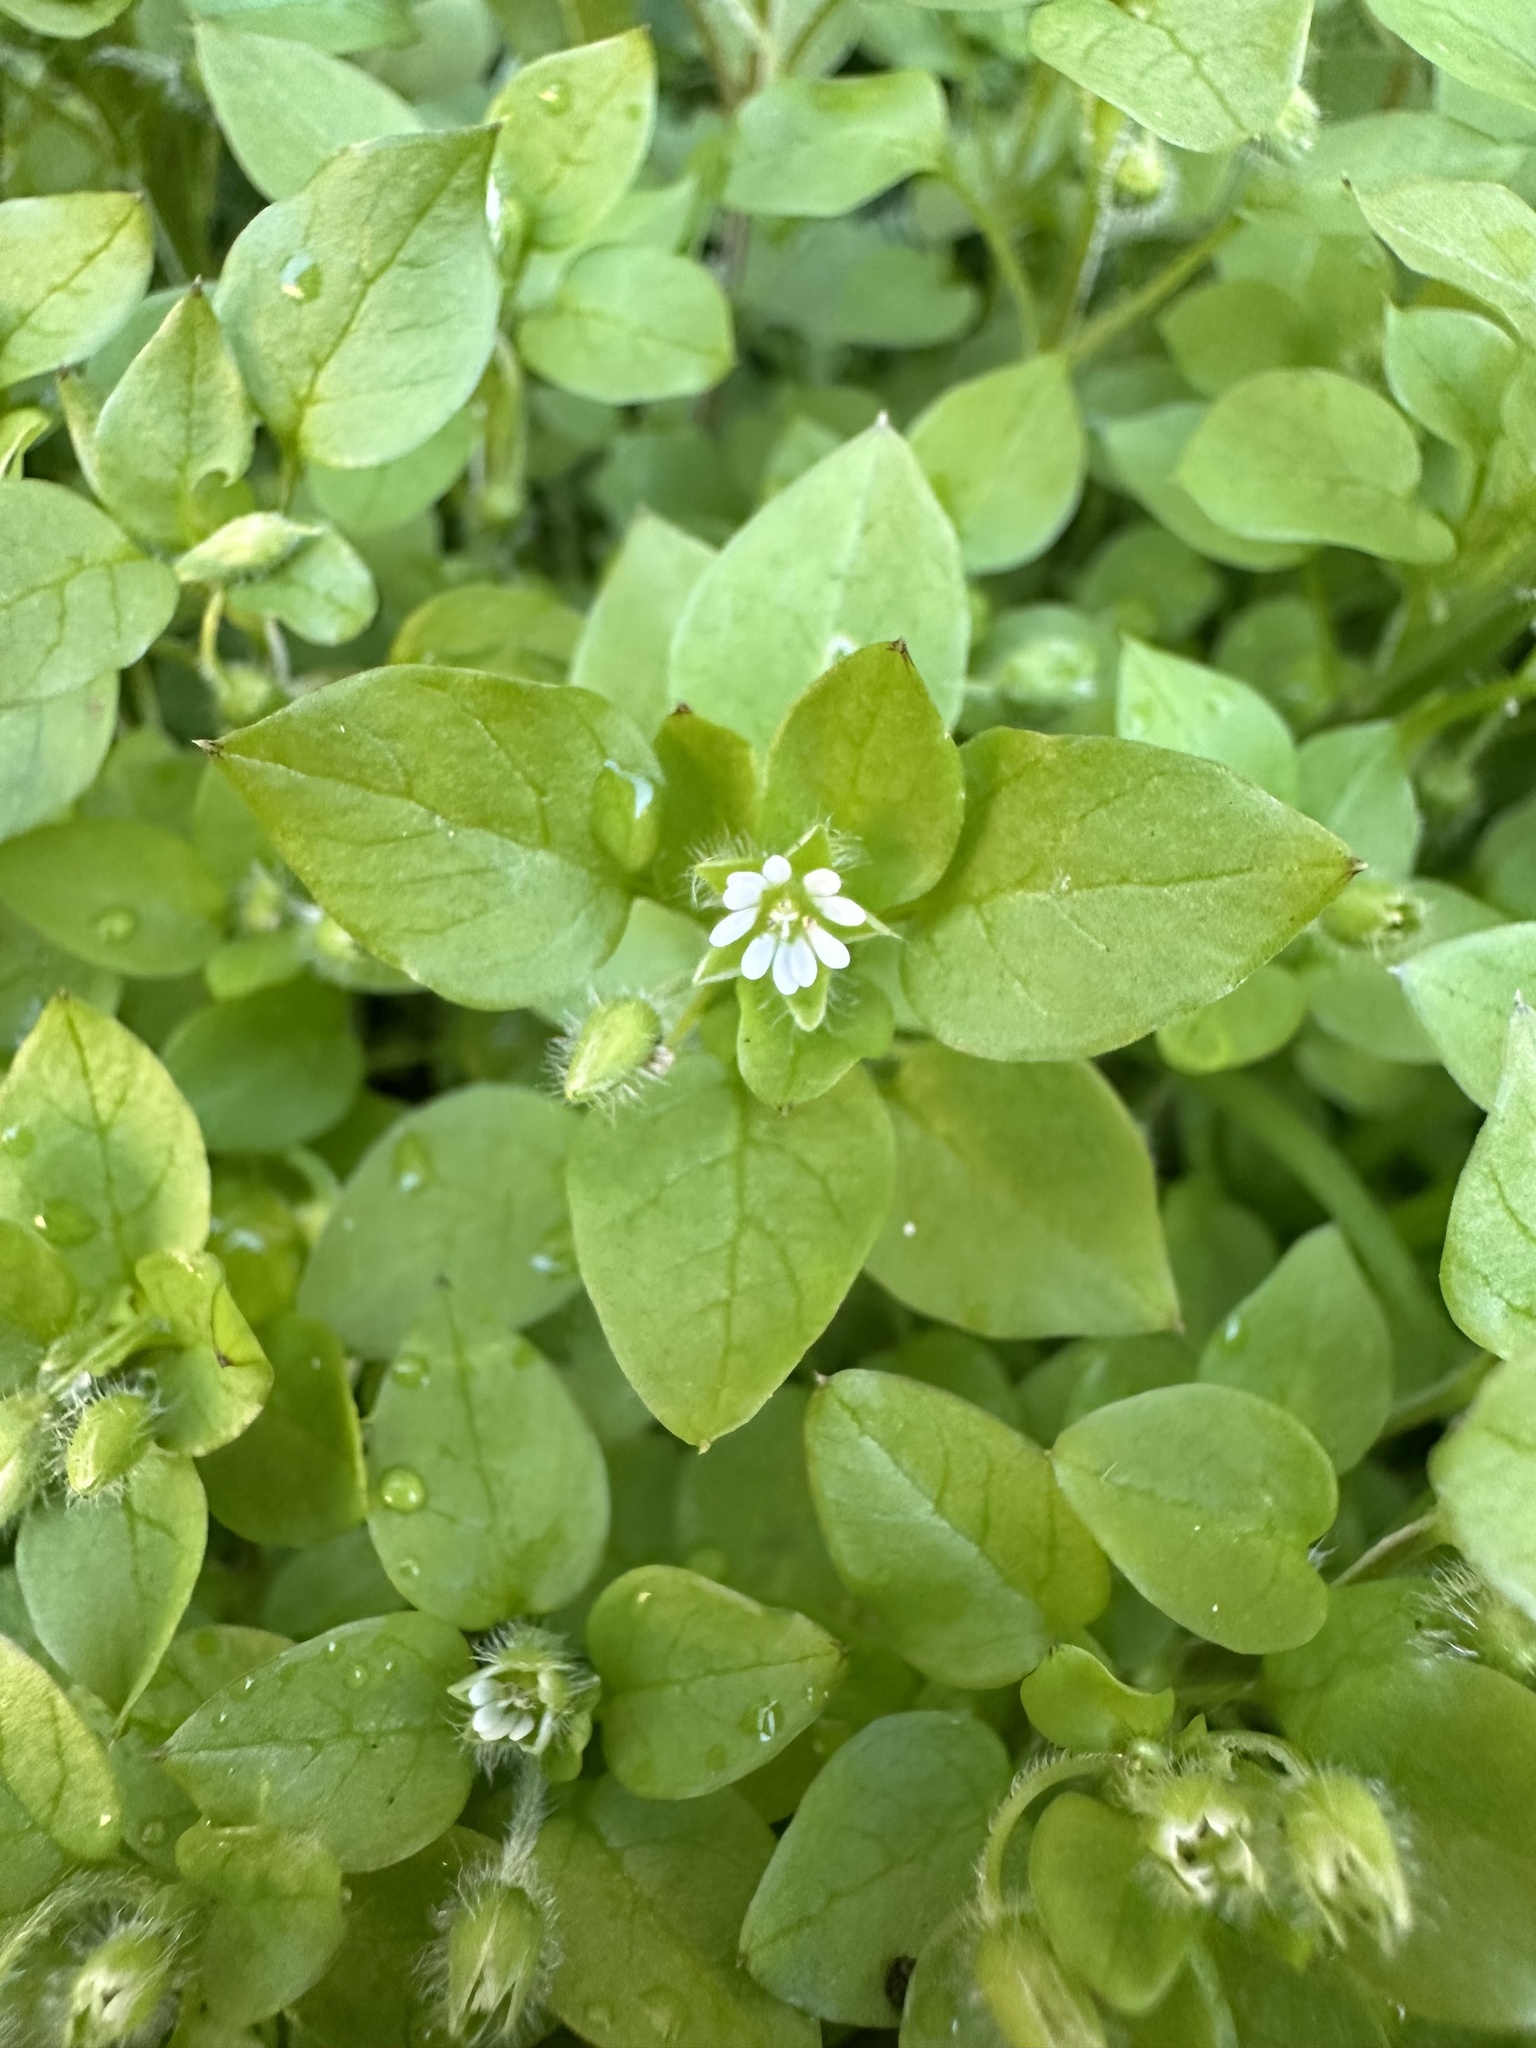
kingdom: Plantae
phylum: Tracheophyta
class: Magnoliopsida
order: Caryophyllales
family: Caryophyllaceae
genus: Stellaria
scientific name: Stellaria media
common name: Common chickweed
